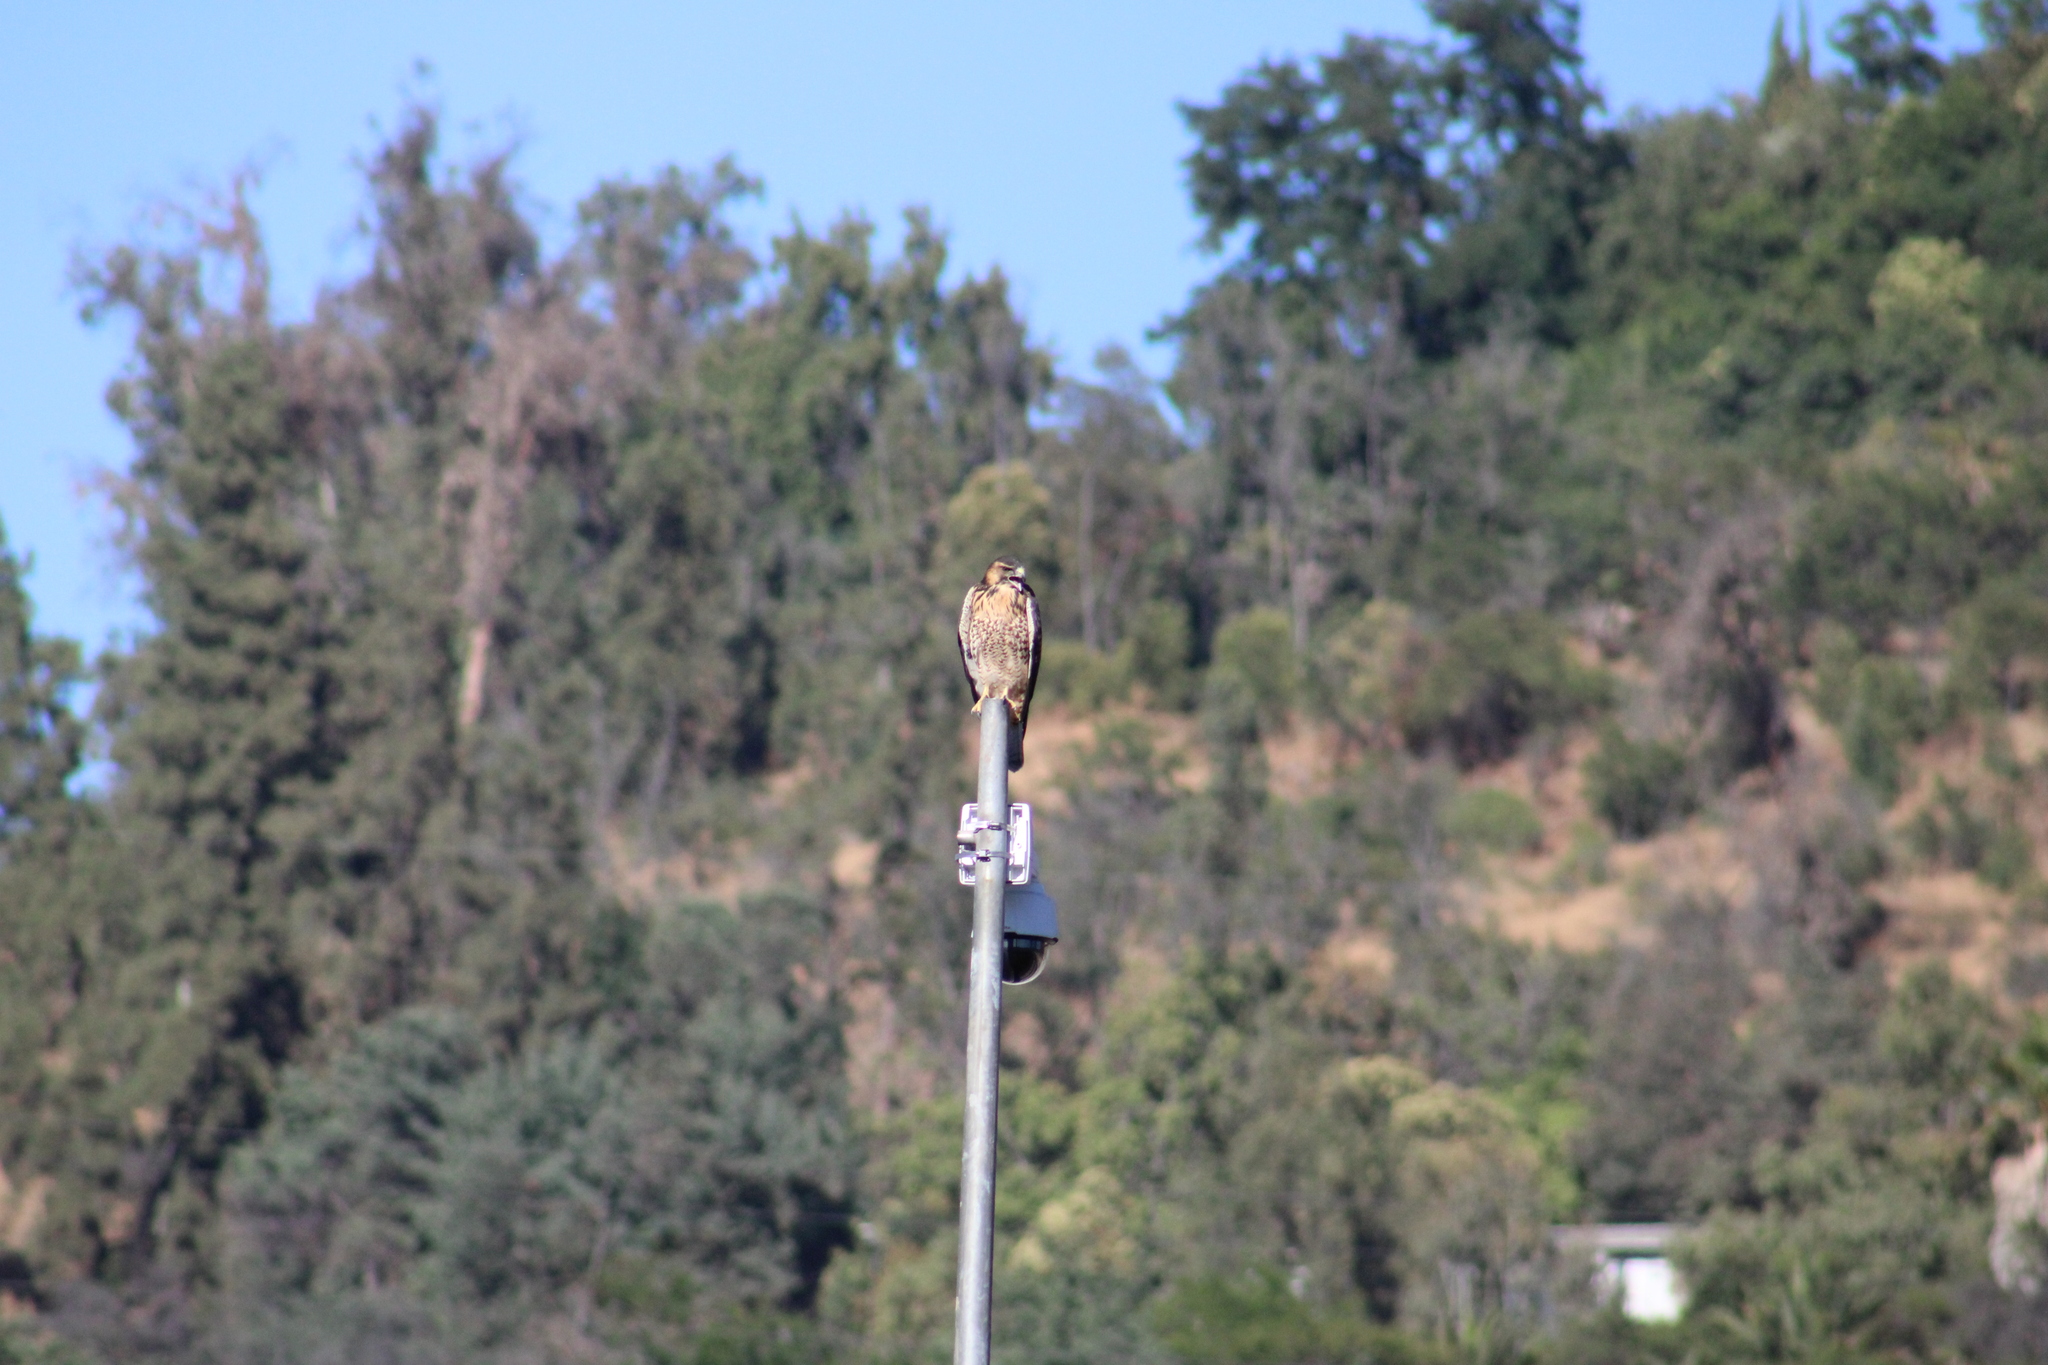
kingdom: Animalia
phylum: Chordata
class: Aves
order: Accipitriformes
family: Accipitridae
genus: Buteo
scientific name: Buteo polyosoma
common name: Variable hawk
